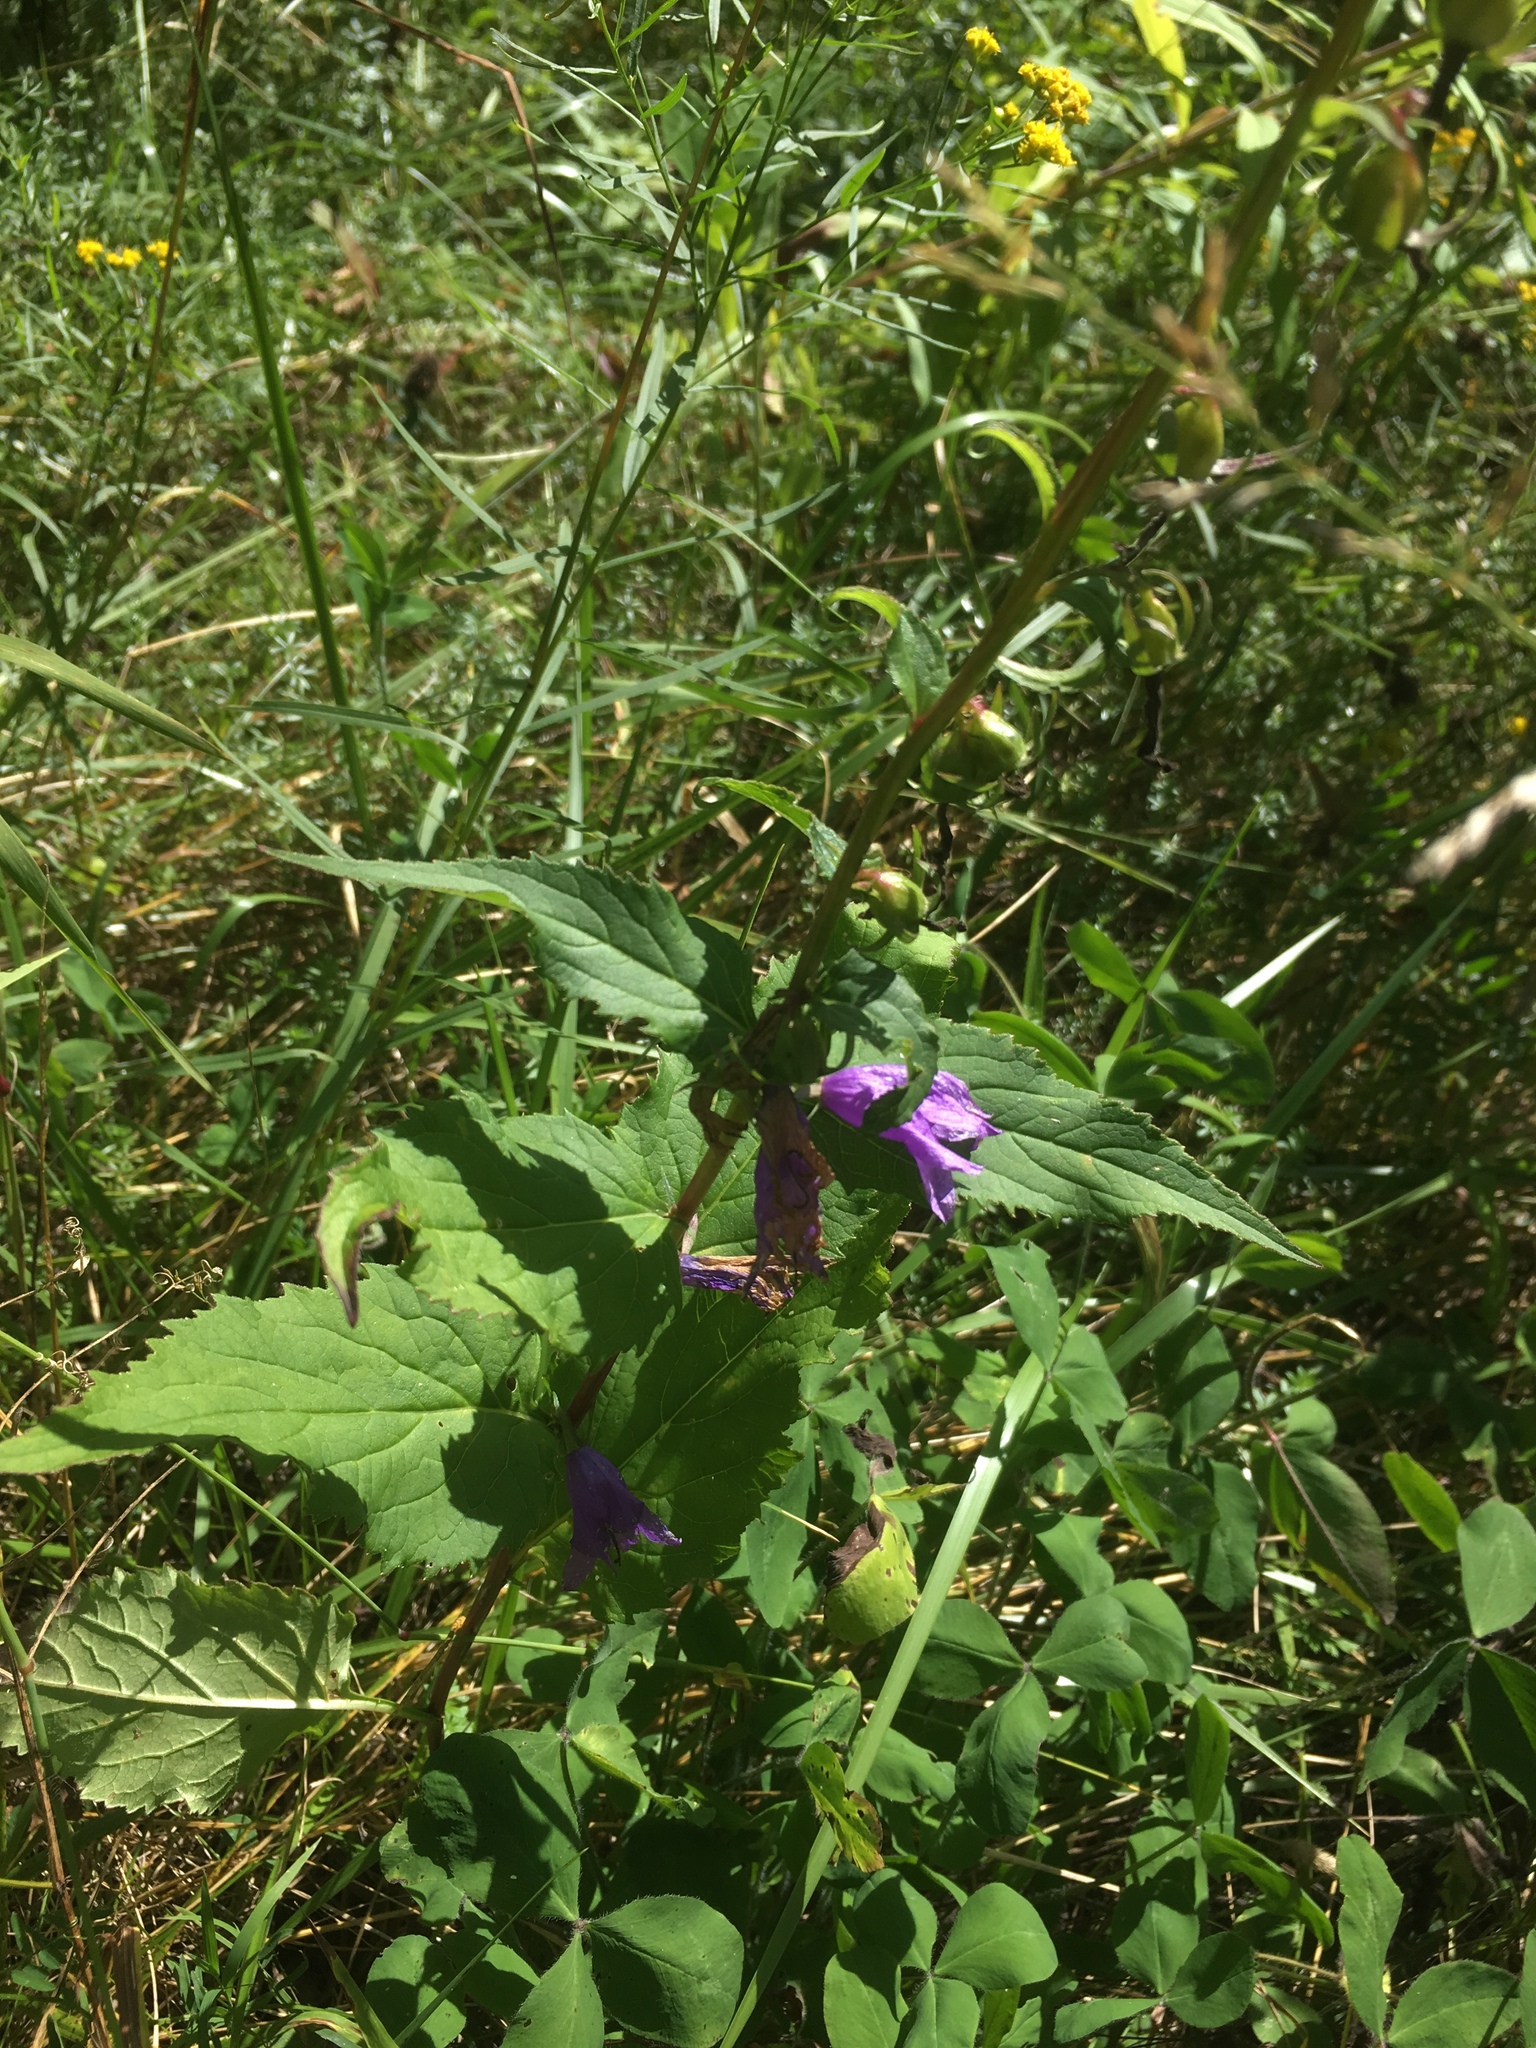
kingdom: Plantae
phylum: Tracheophyta
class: Magnoliopsida
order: Asterales
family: Campanulaceae
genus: Campanula
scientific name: Campanula rapunculoides
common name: Creeping bellflower
